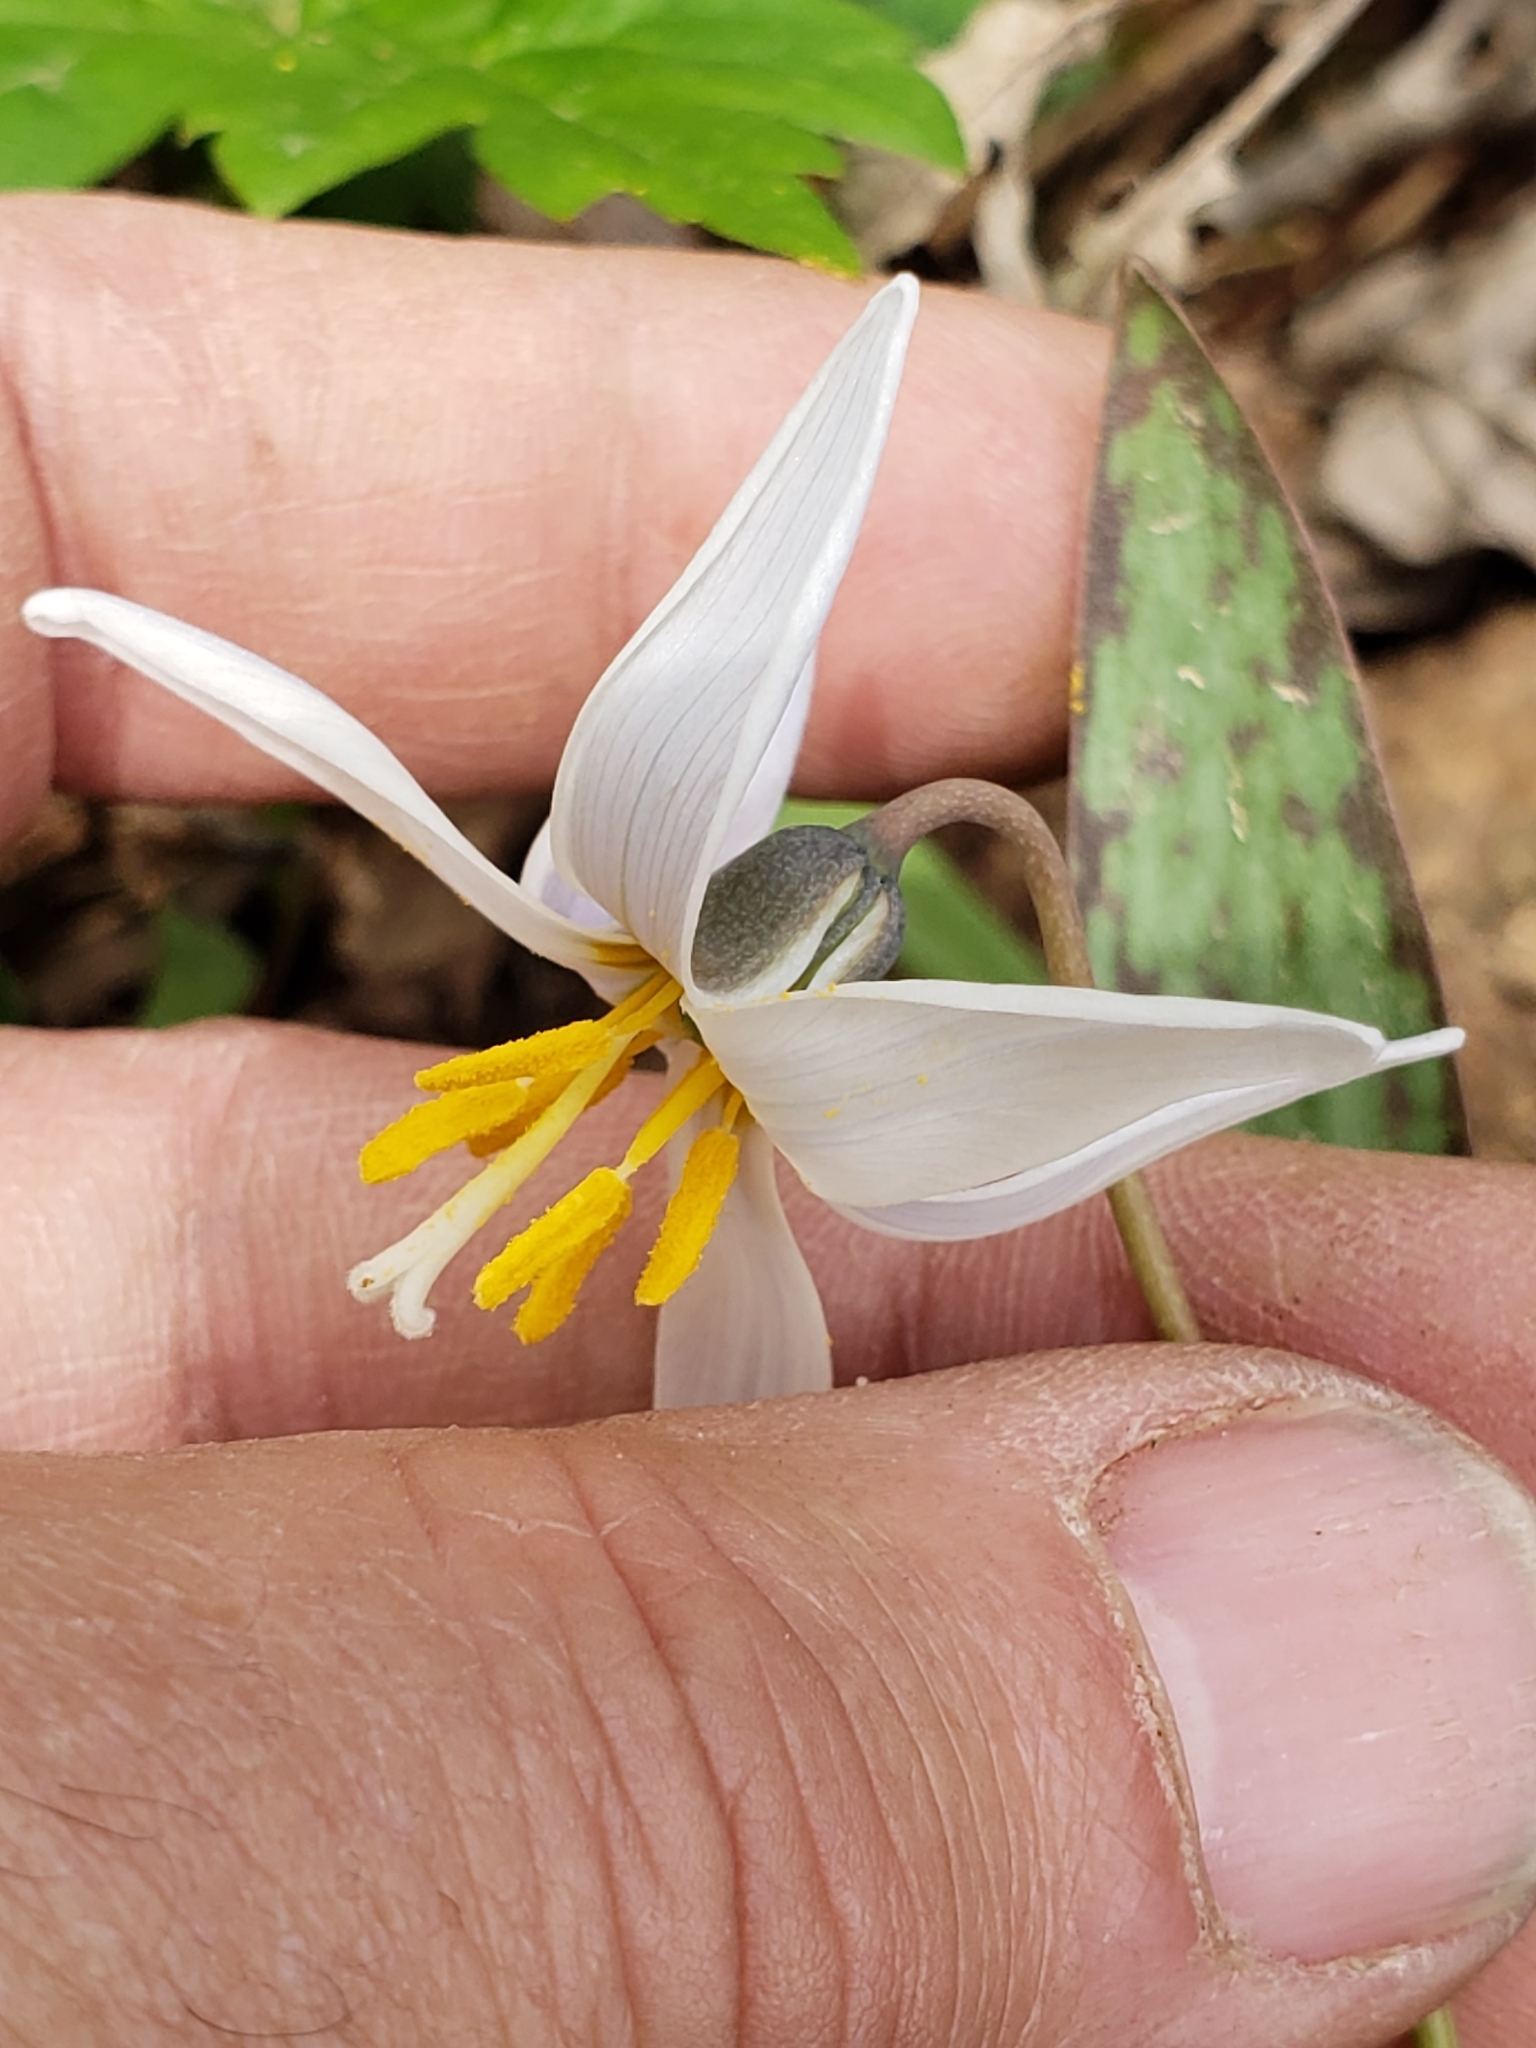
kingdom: Plantae
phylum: Tracheophyta
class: Liliopsida
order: Liliales
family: Liliaceae
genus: Erythronium
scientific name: Erythronium albidum
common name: White trout-lily
